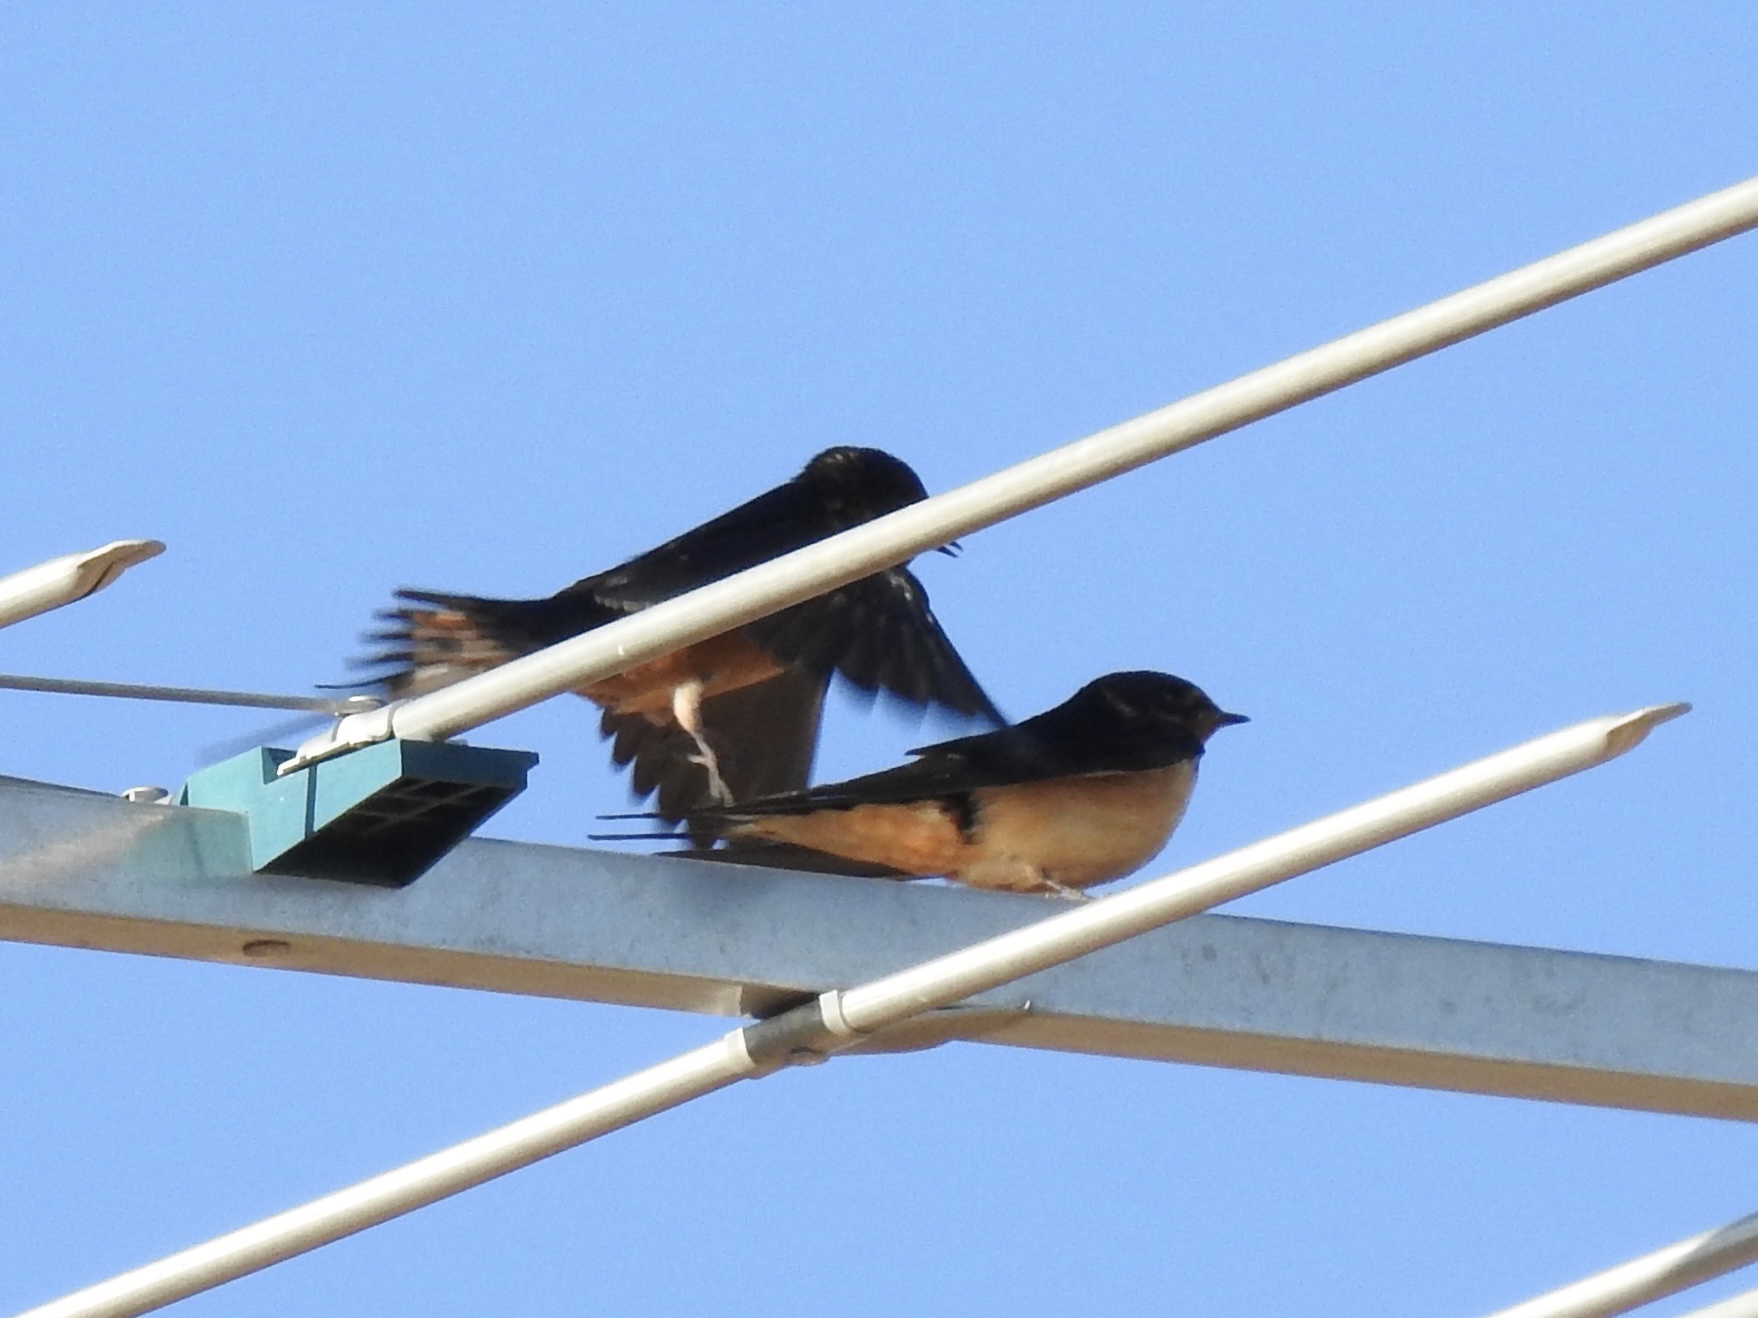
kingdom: Animalia
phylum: Chordata
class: Aves
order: Passeriformes
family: Hirundinidae
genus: Hirundo
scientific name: Hirundo rustica
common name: Barn swallow
